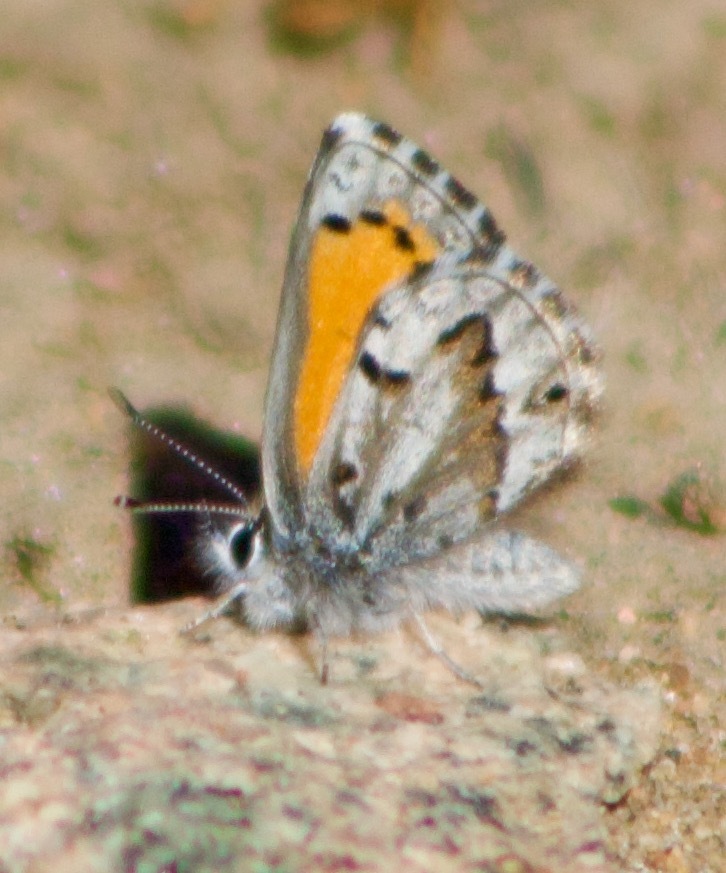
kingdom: Animalia
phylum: Arthropoda
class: Insecta
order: Lepidoptera
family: Lycaenidae
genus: Pseudolucia
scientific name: Pseudolucia
